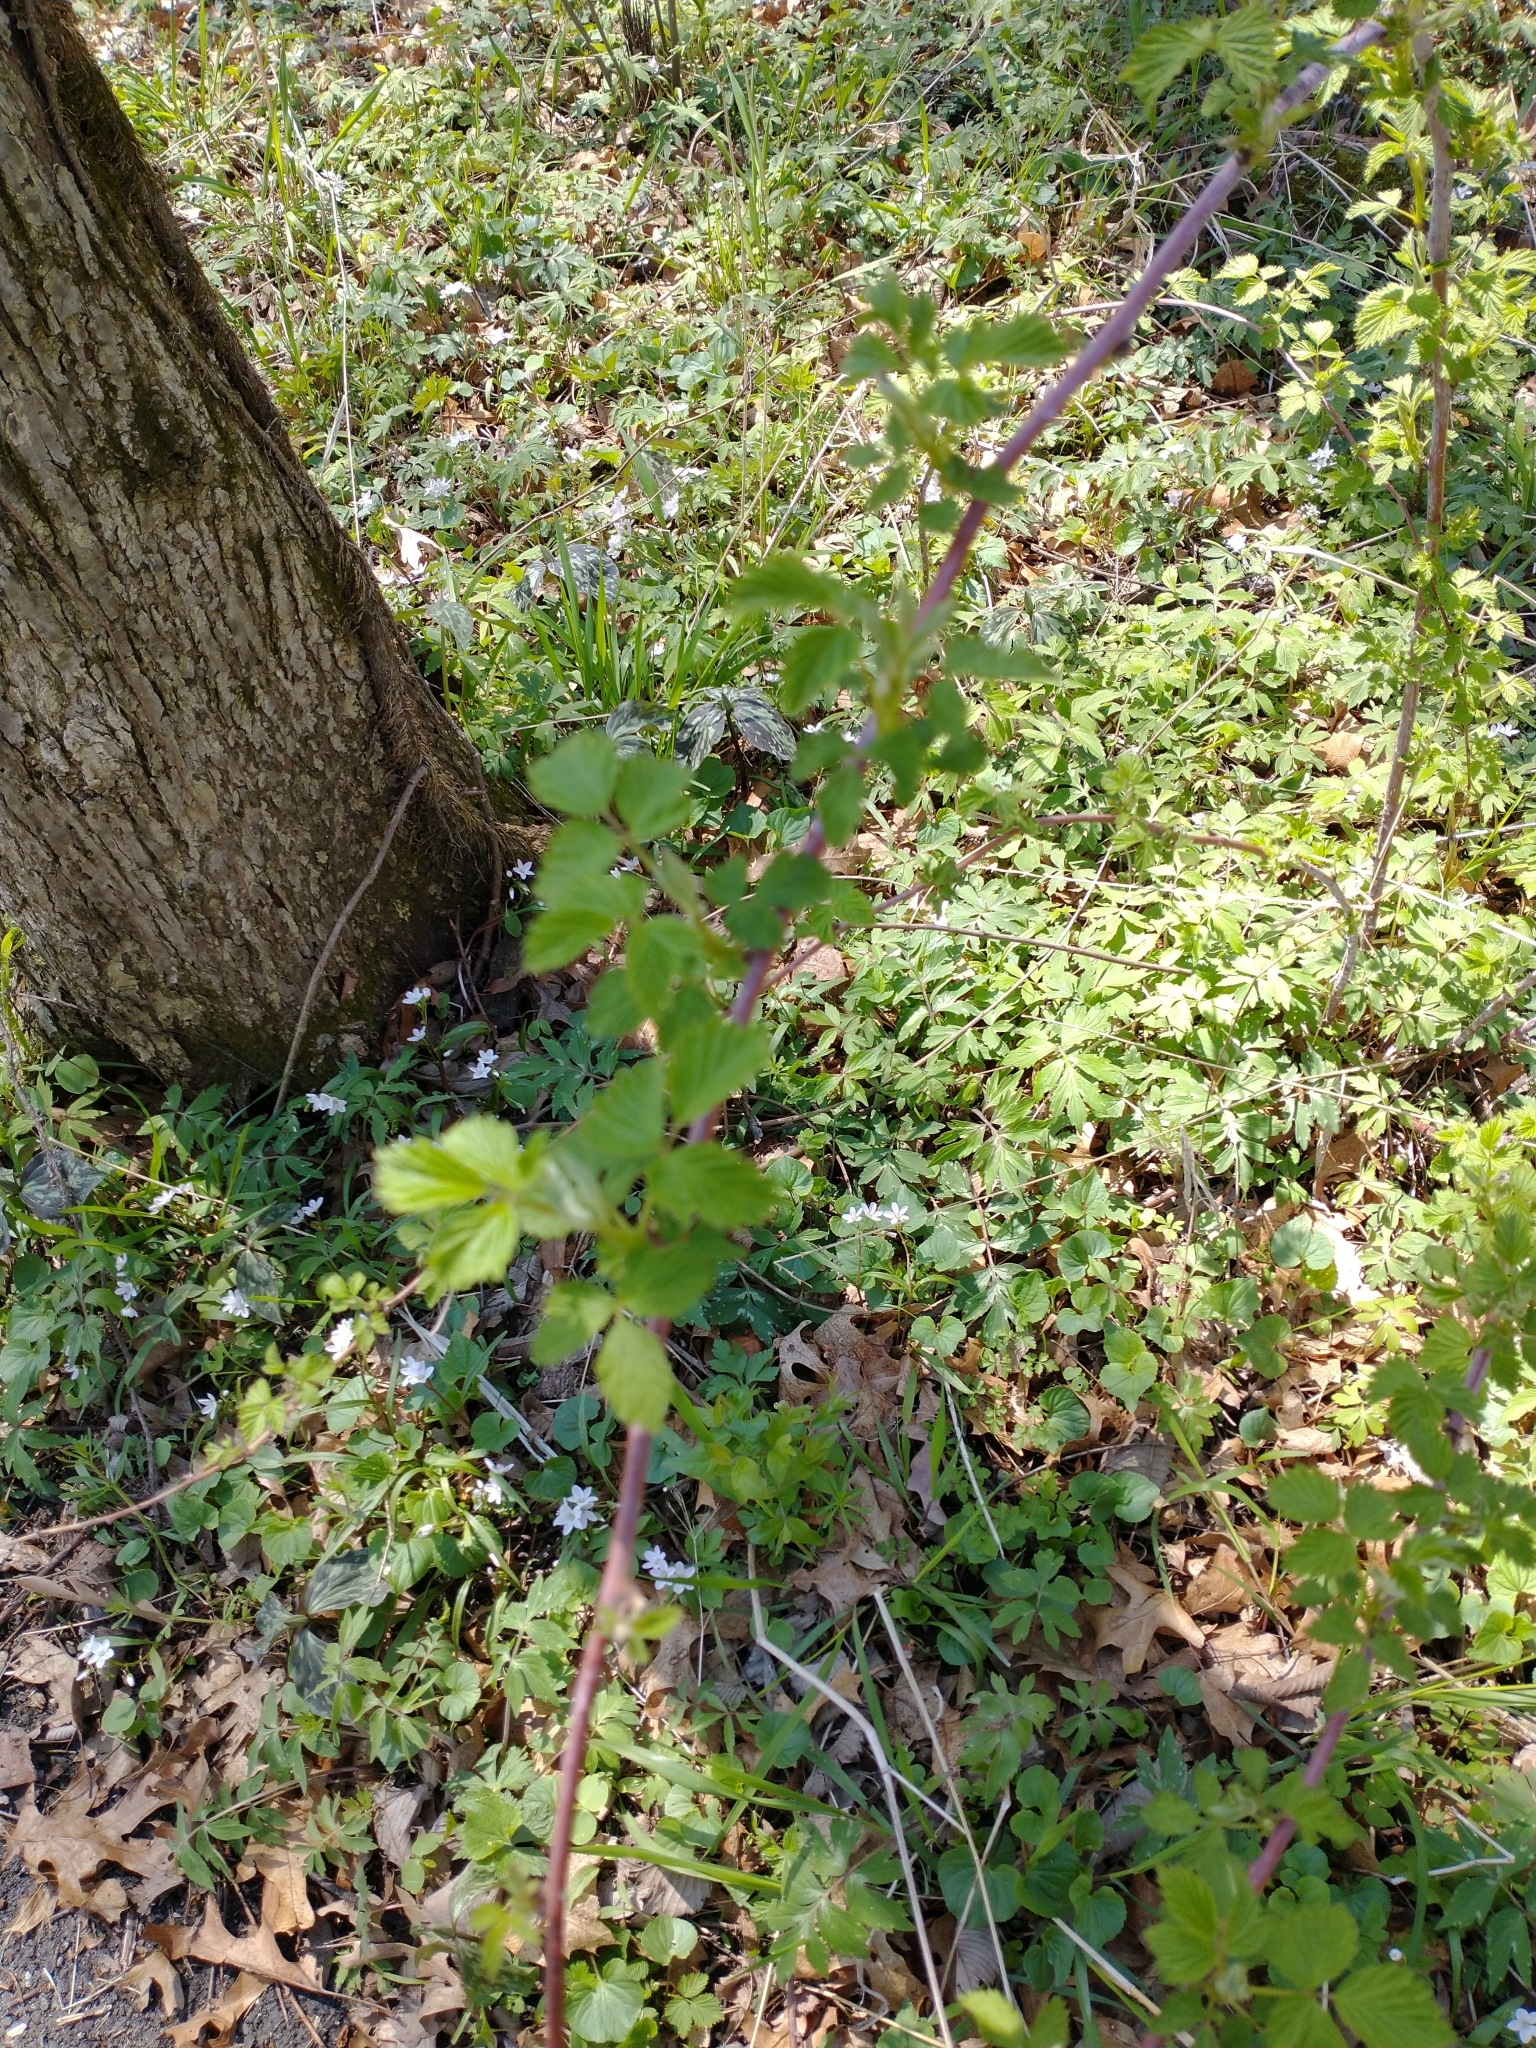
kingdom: Plantae
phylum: Tracheophyta
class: Magnoliopsida
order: Rosales
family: Rosaceae
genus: Rubus
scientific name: Rubus occidentalis
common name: Black raspberry
